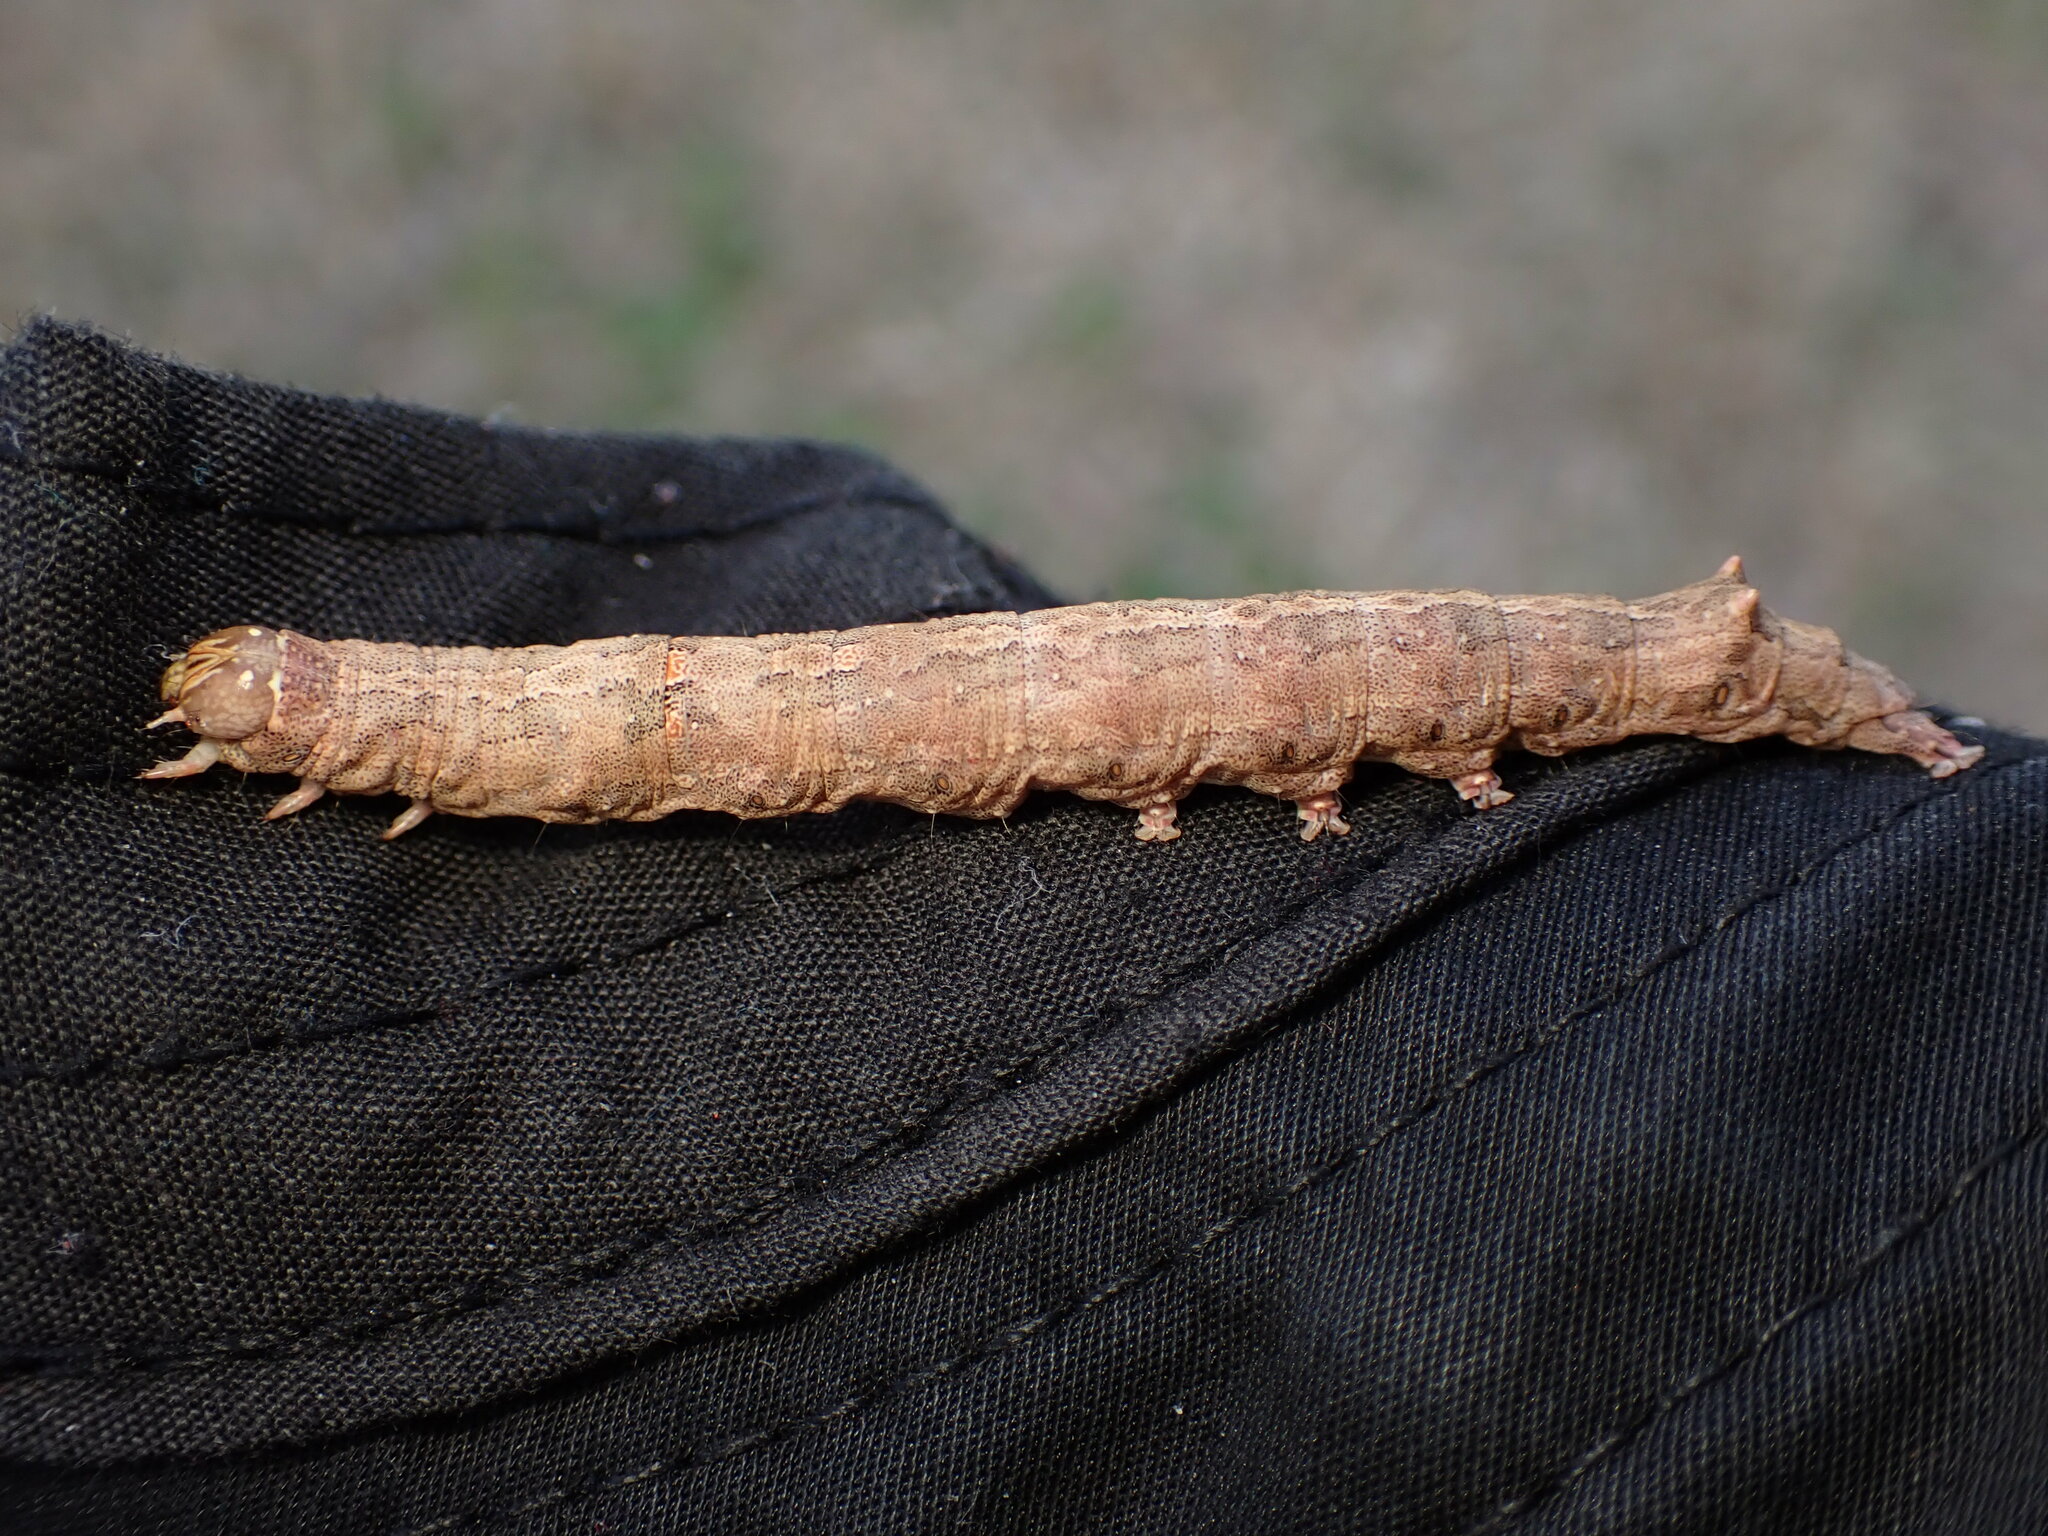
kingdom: Animalia
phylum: Arthropoda
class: Insecta
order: Lepidoptera
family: Erebidae
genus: Ophiusa
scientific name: Ophiusa disjungens
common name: Moth
